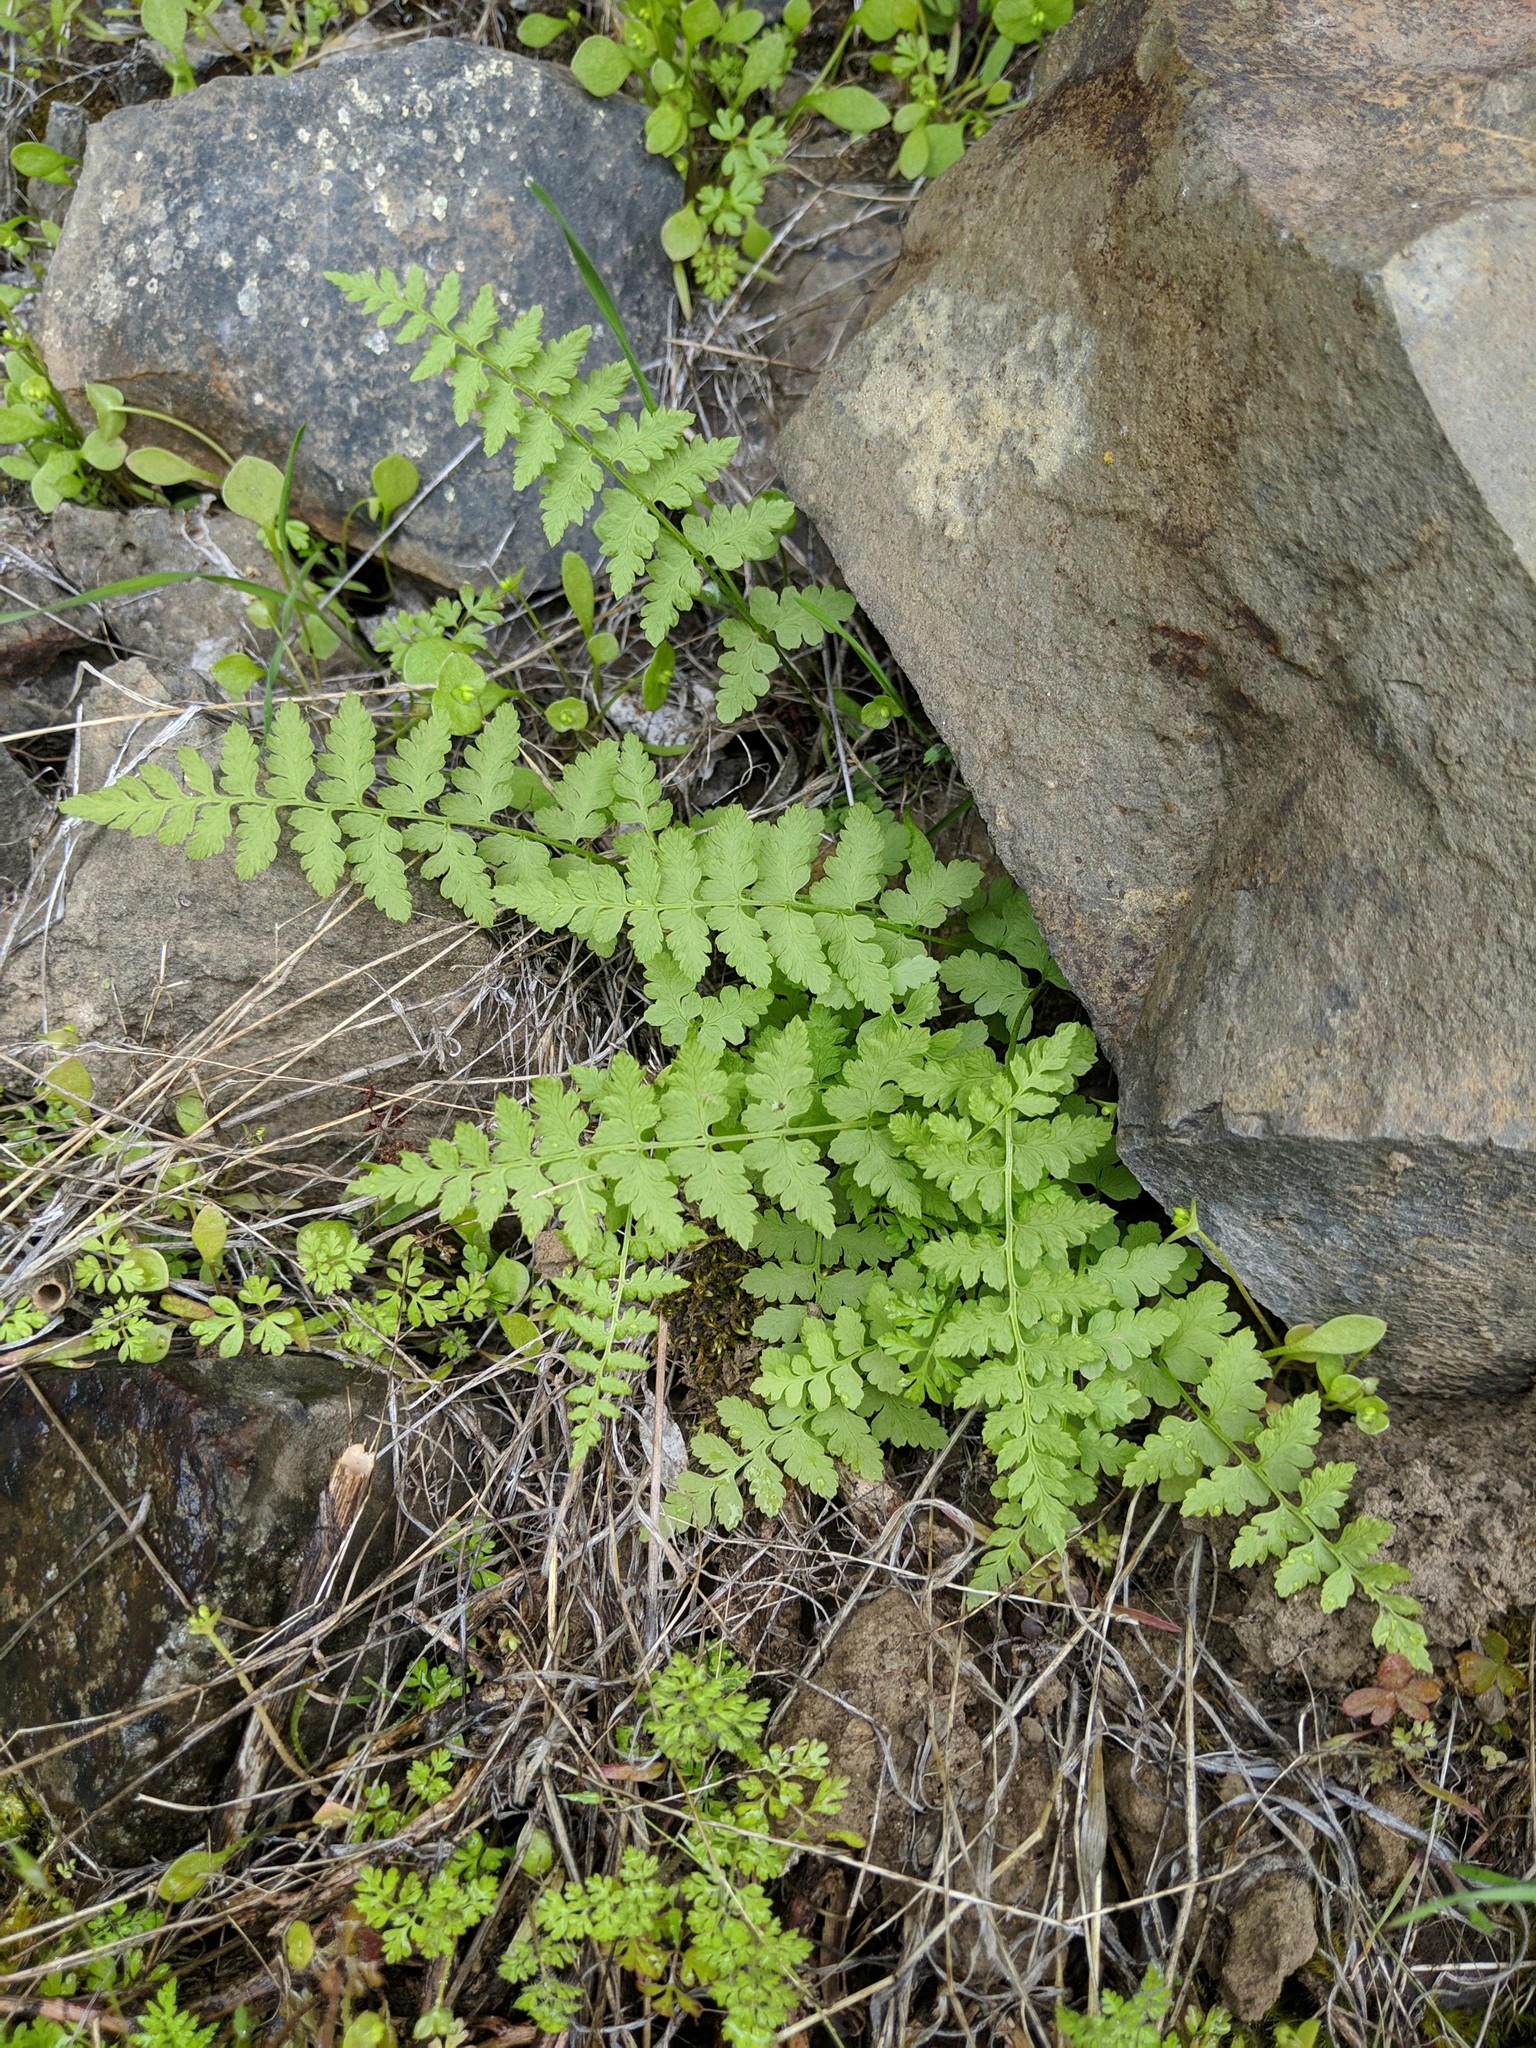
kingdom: Plantae
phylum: Tracheophyta
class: Polypodiopsida
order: Polypodiales
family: Cystopteridaceae
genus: Cystopteris
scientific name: Cystopteris fragilis
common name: Brittle bladder fern
